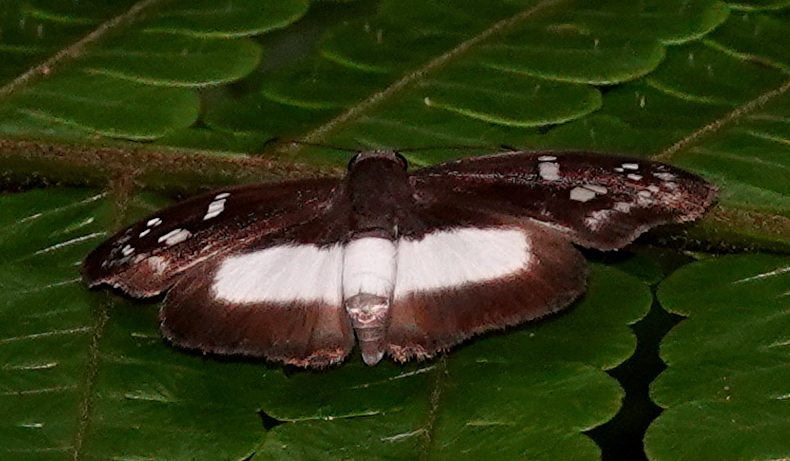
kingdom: Animalia
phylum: Arthropoda
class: Insecta
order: Lepidoptera
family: Hesperiidae
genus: Milanion
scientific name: Milanion clito
